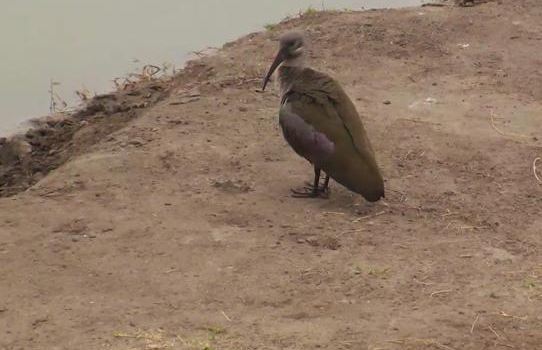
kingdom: Animalia
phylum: Chordata
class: Aves
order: Pelecaniformes
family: Threskiornithidae
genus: Bostrychia
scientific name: Bostrychia hagedash
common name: Hadada ibis
